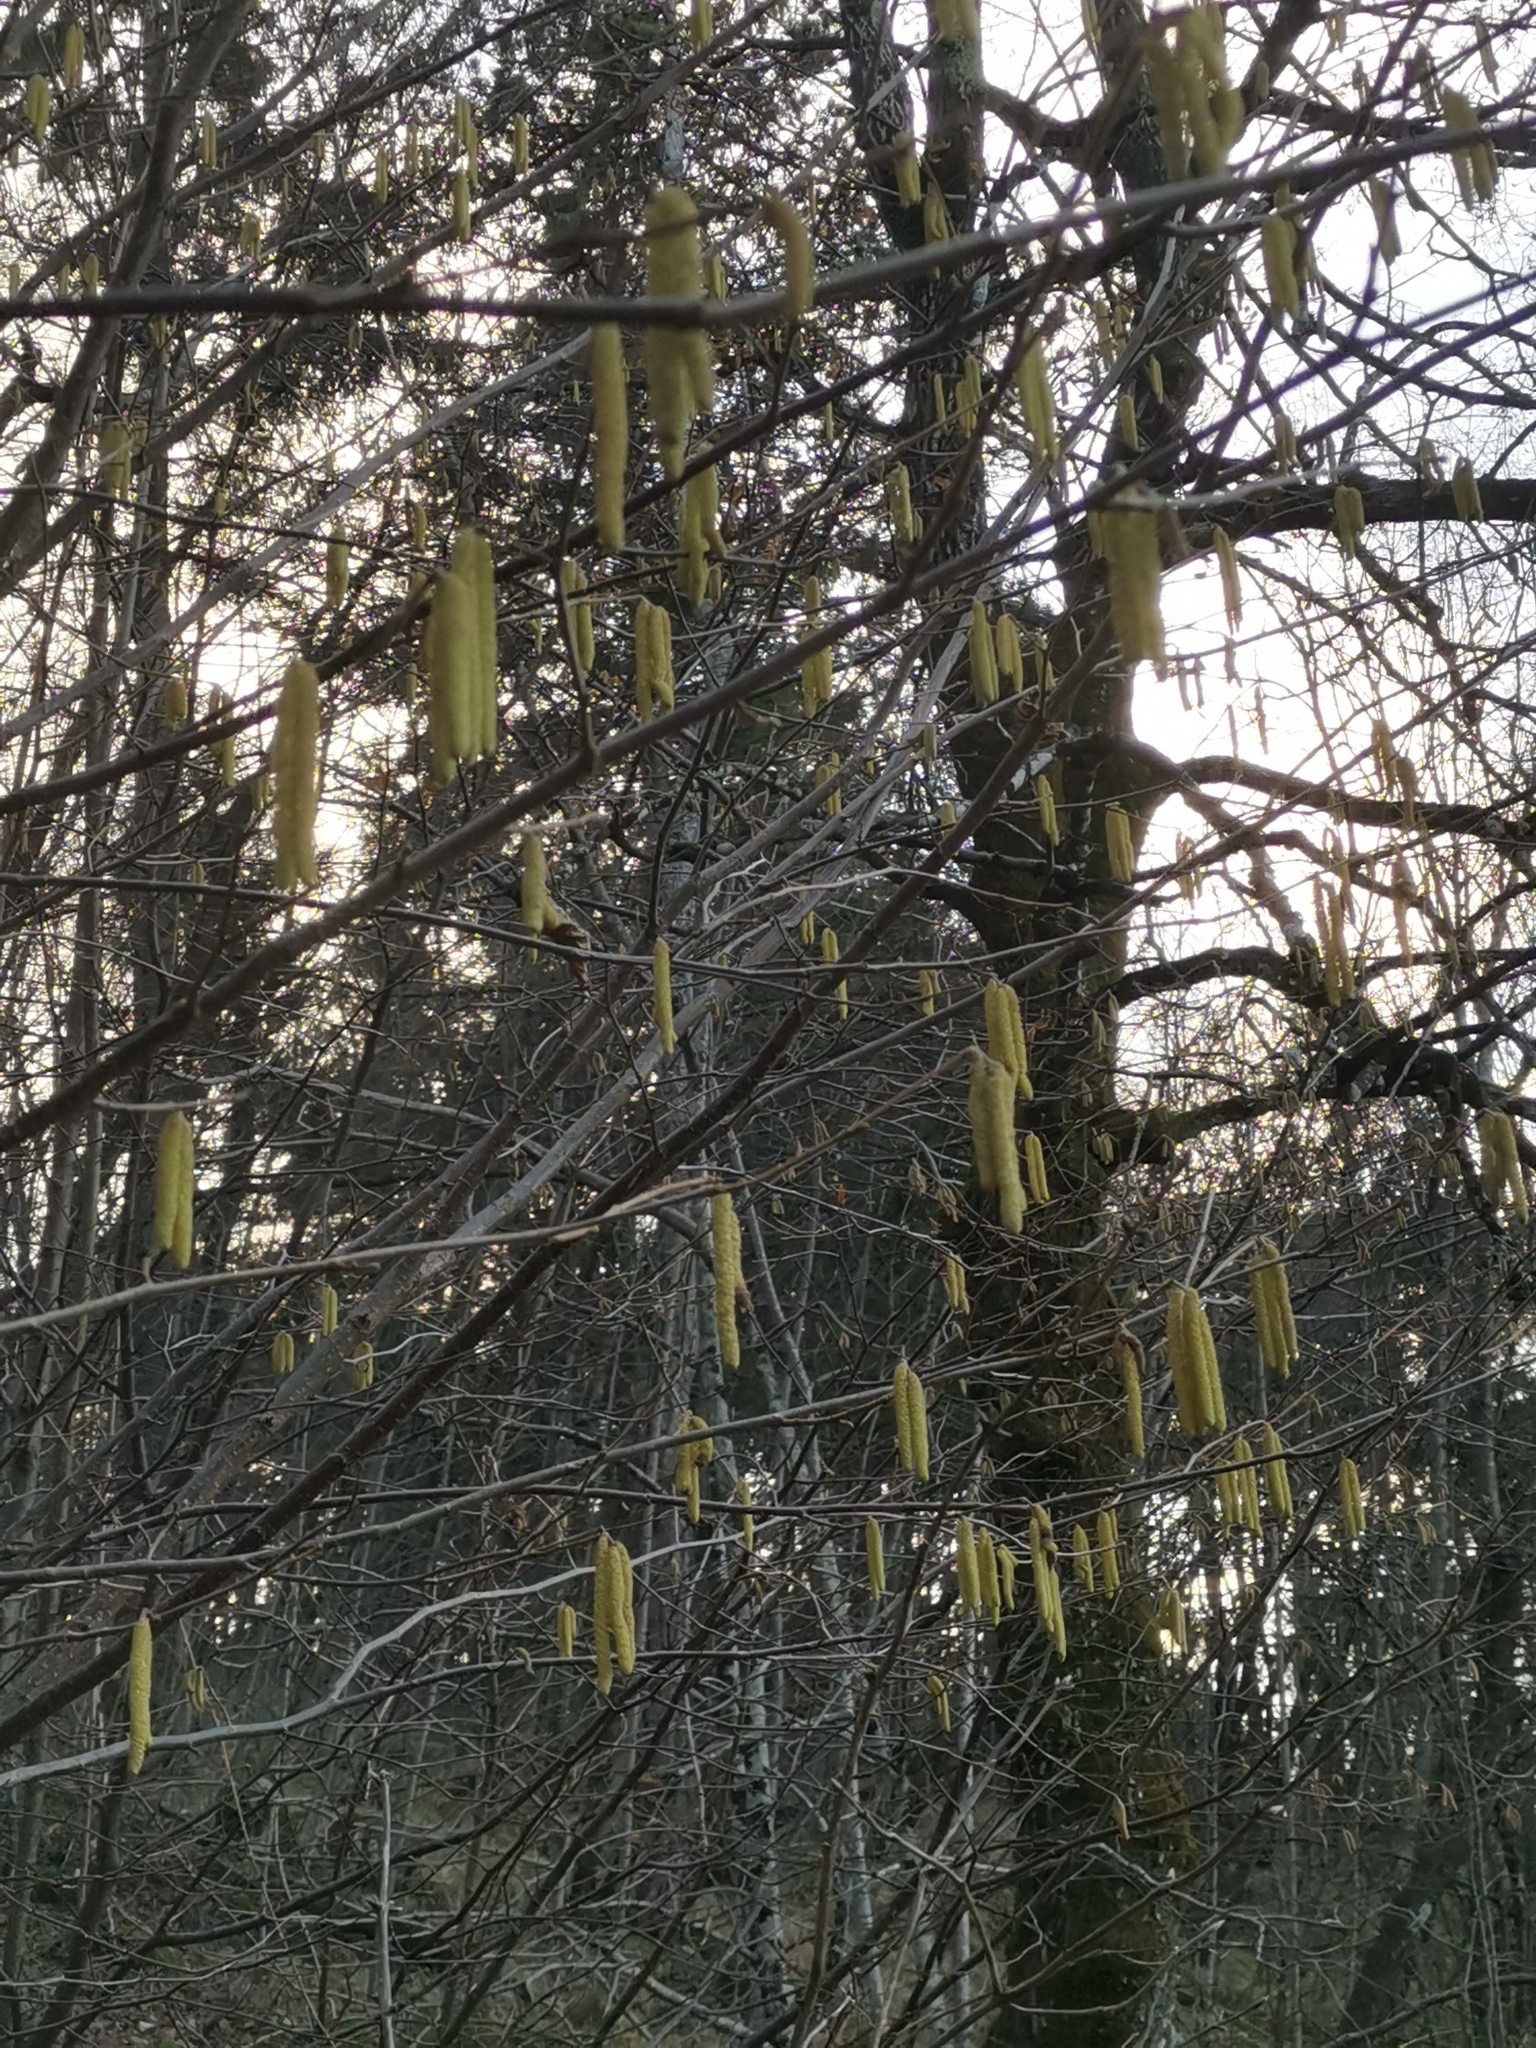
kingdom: Plantae
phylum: Tracheophyta
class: Magnoliopsida
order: Fagales
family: Betulaceae
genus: Corylus
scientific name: Corylus avellana
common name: European hazel
